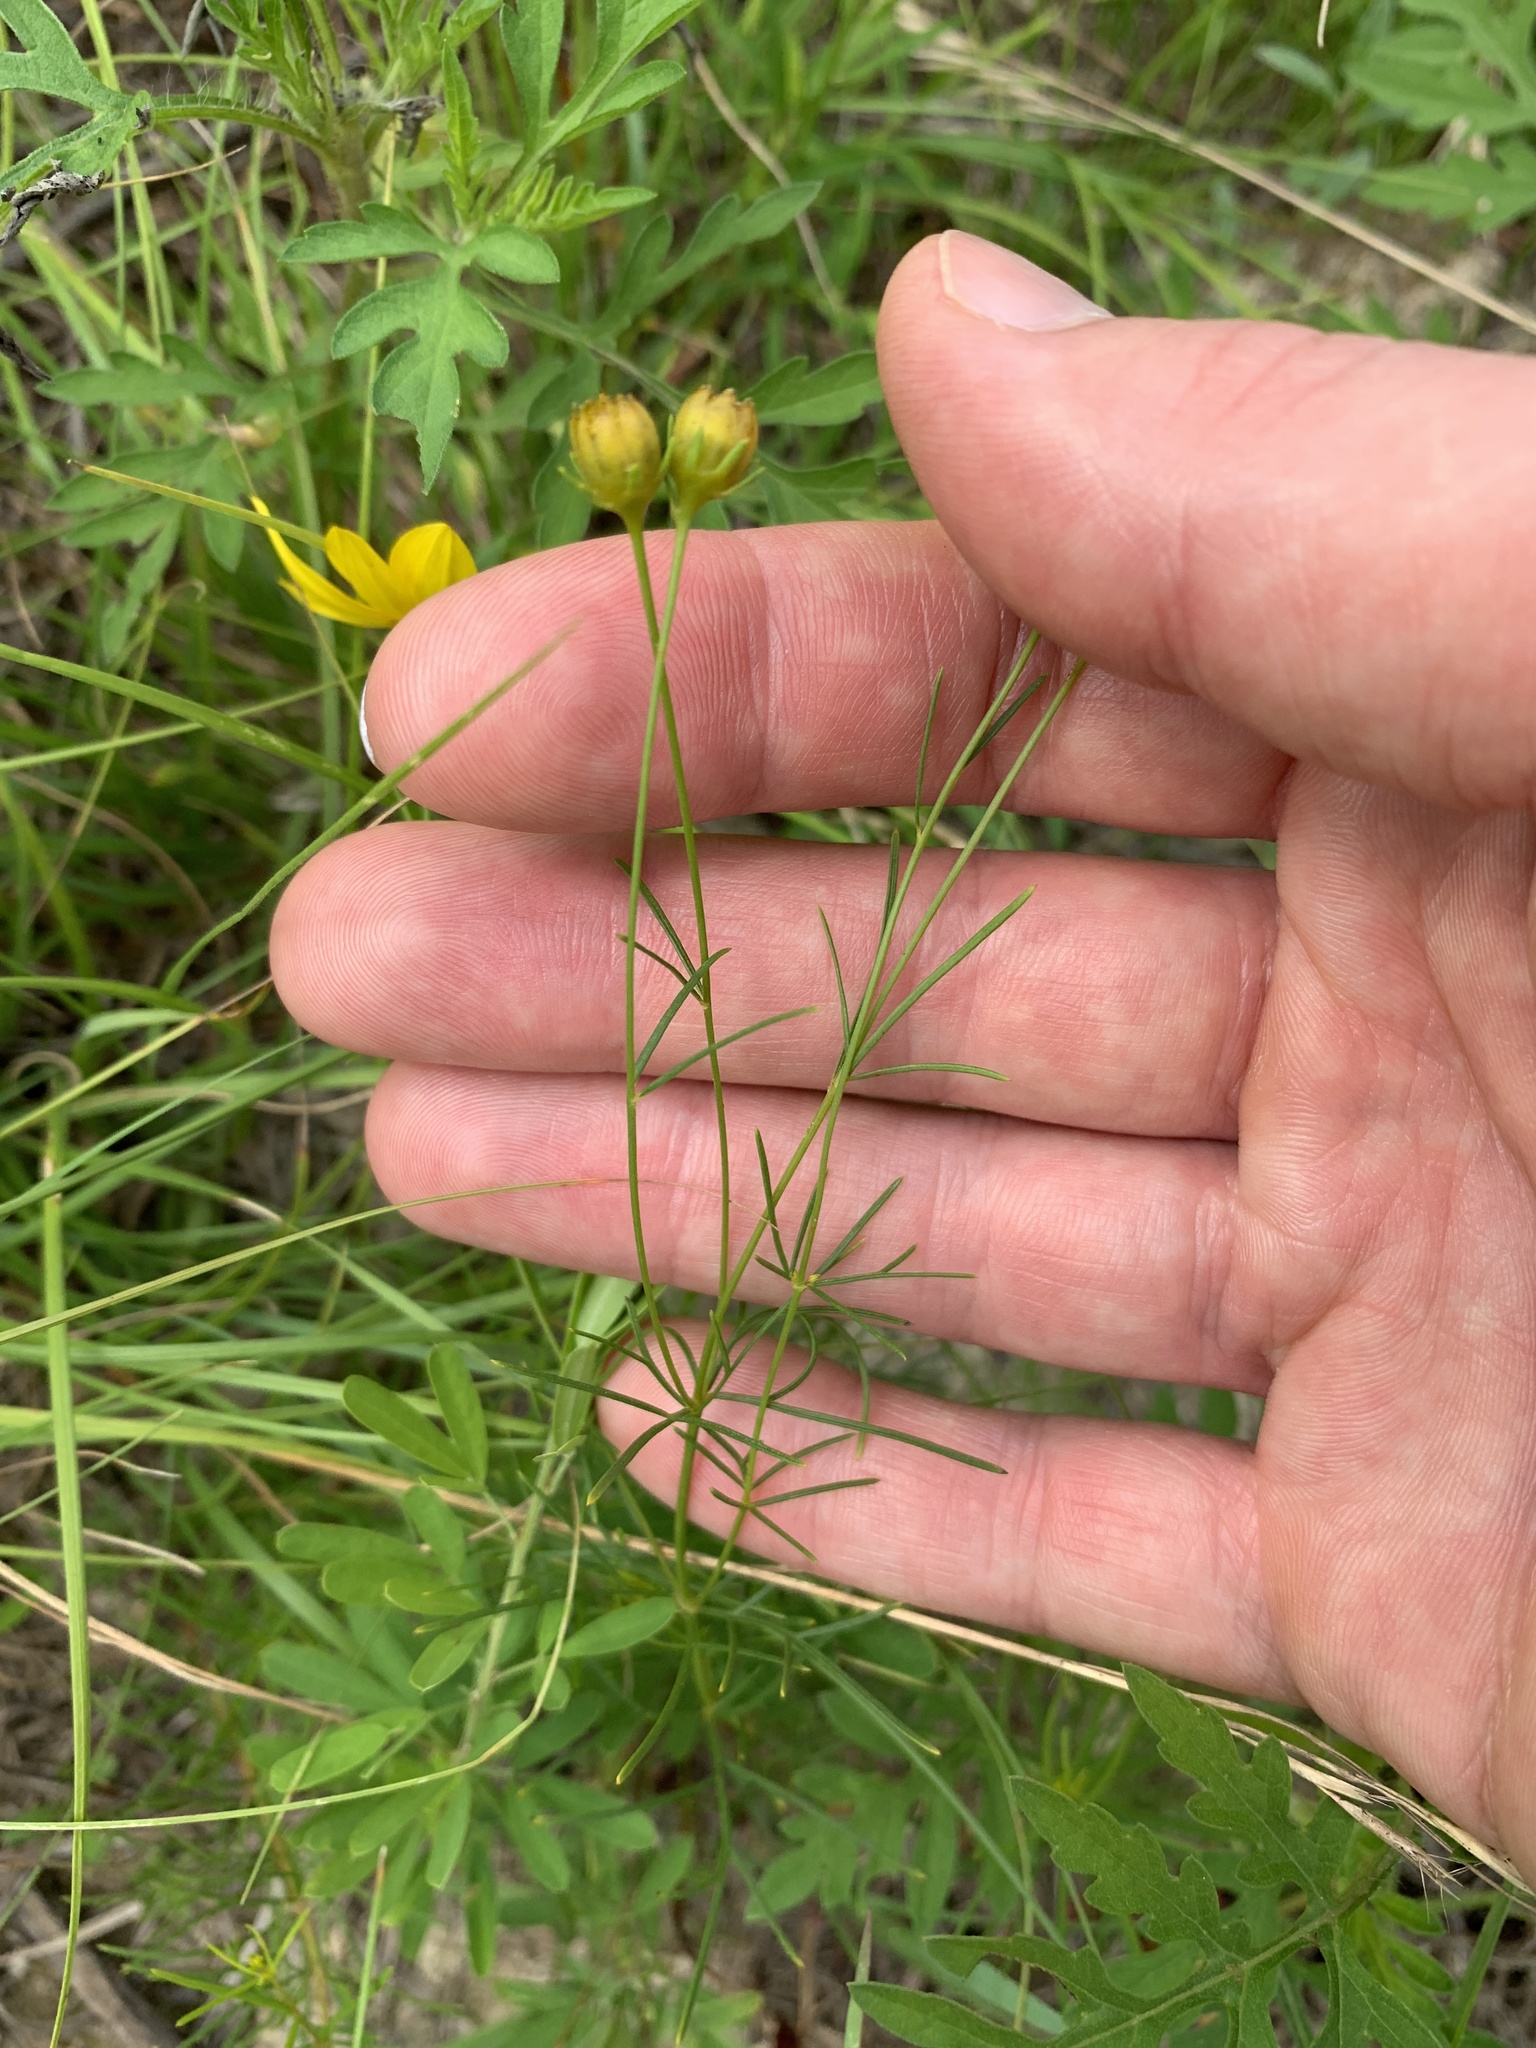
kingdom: Plantae
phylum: Tracheophyta
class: Magnoliopsida
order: Asterales
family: Asteraceae
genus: Coreopsis
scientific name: Coreopsis verticillata
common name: Whorled tickseed
